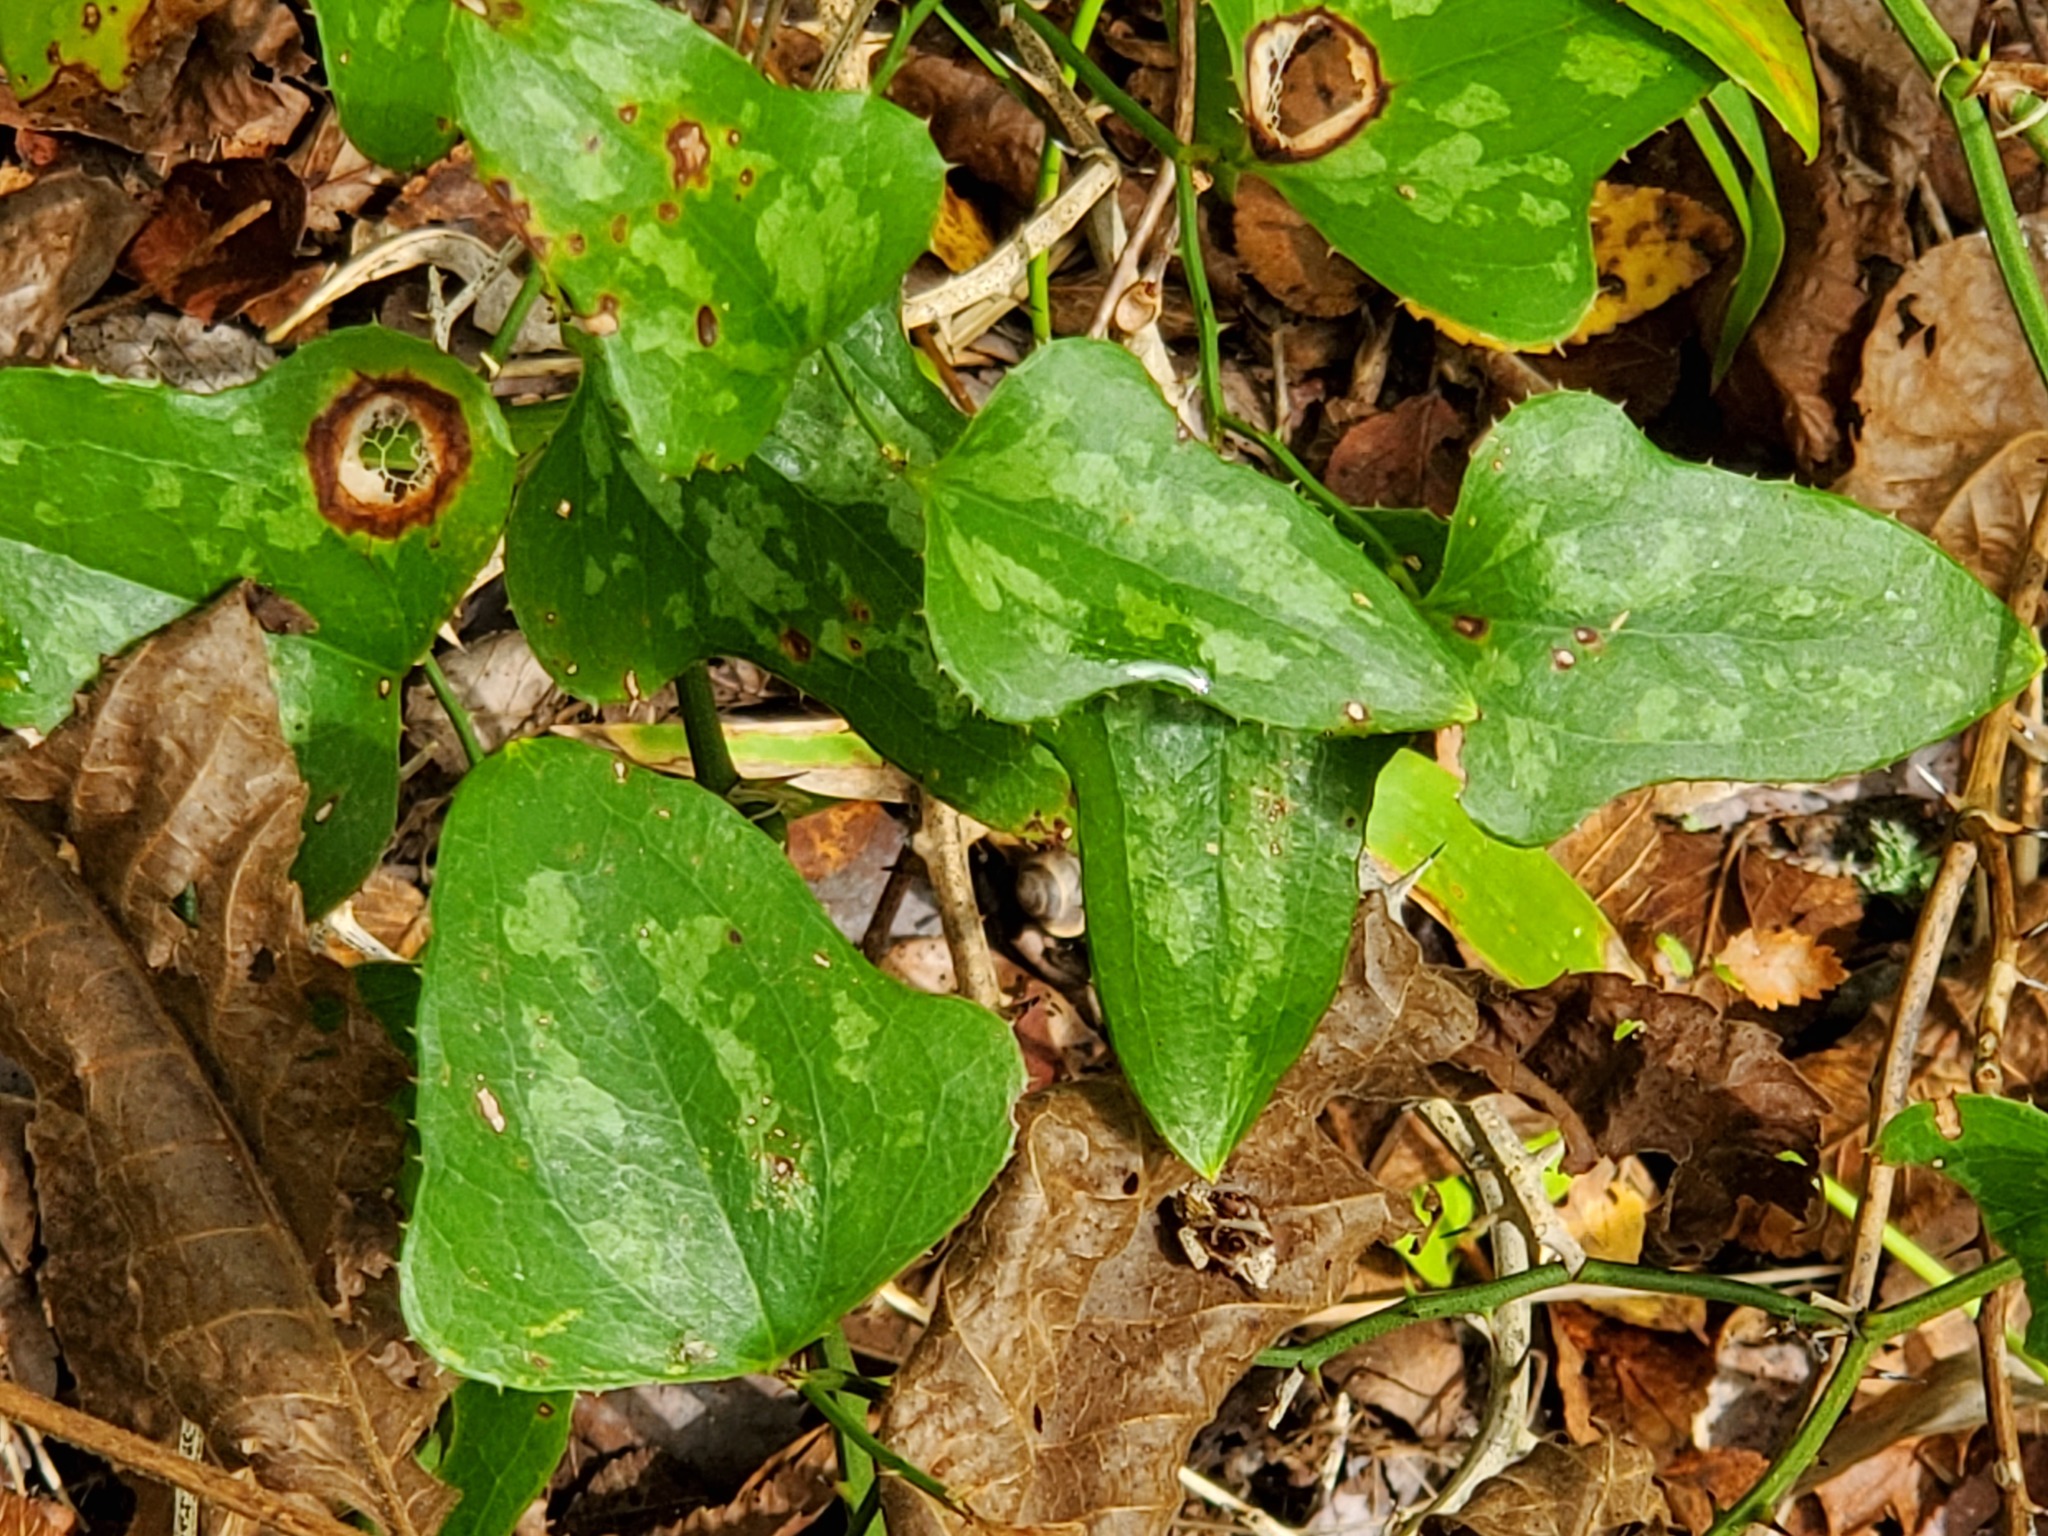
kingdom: Plantae
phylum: Tracheophyta
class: Liliopsida
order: Liliales
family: Smilacaceae
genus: Smilax
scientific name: Smilax bona-nox
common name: Catbrier
